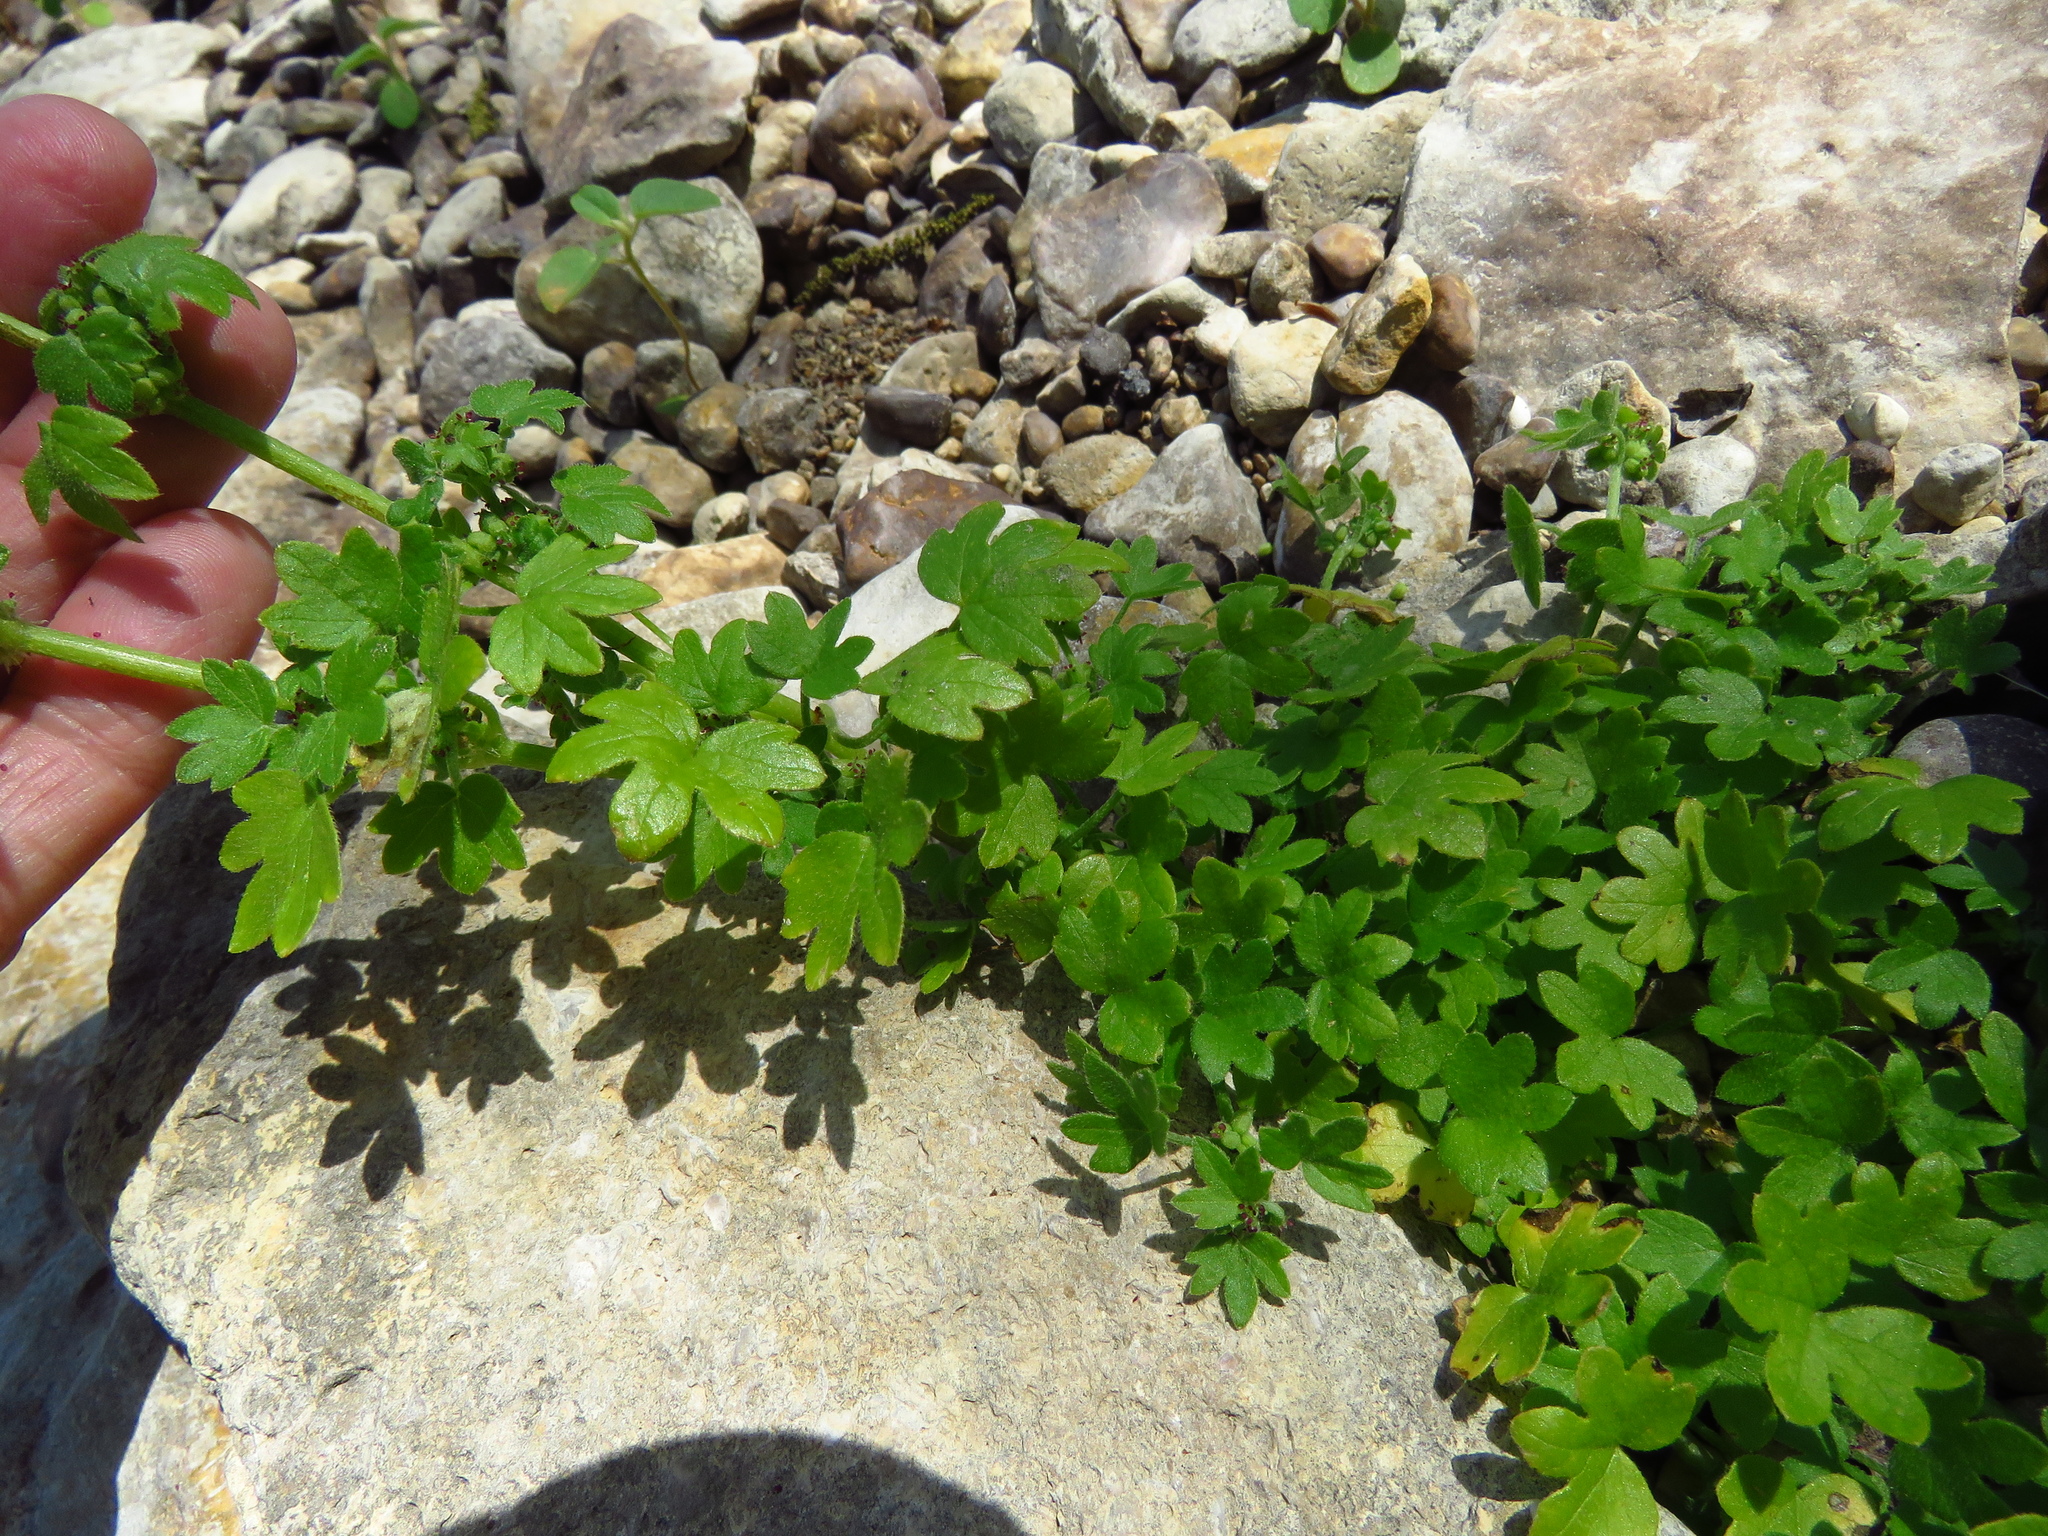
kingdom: Plantae
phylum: Tracheophyta
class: Magnoliopsida
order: Apiales
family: Apiaceae
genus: Bowlesia
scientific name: Bowlesia incana
